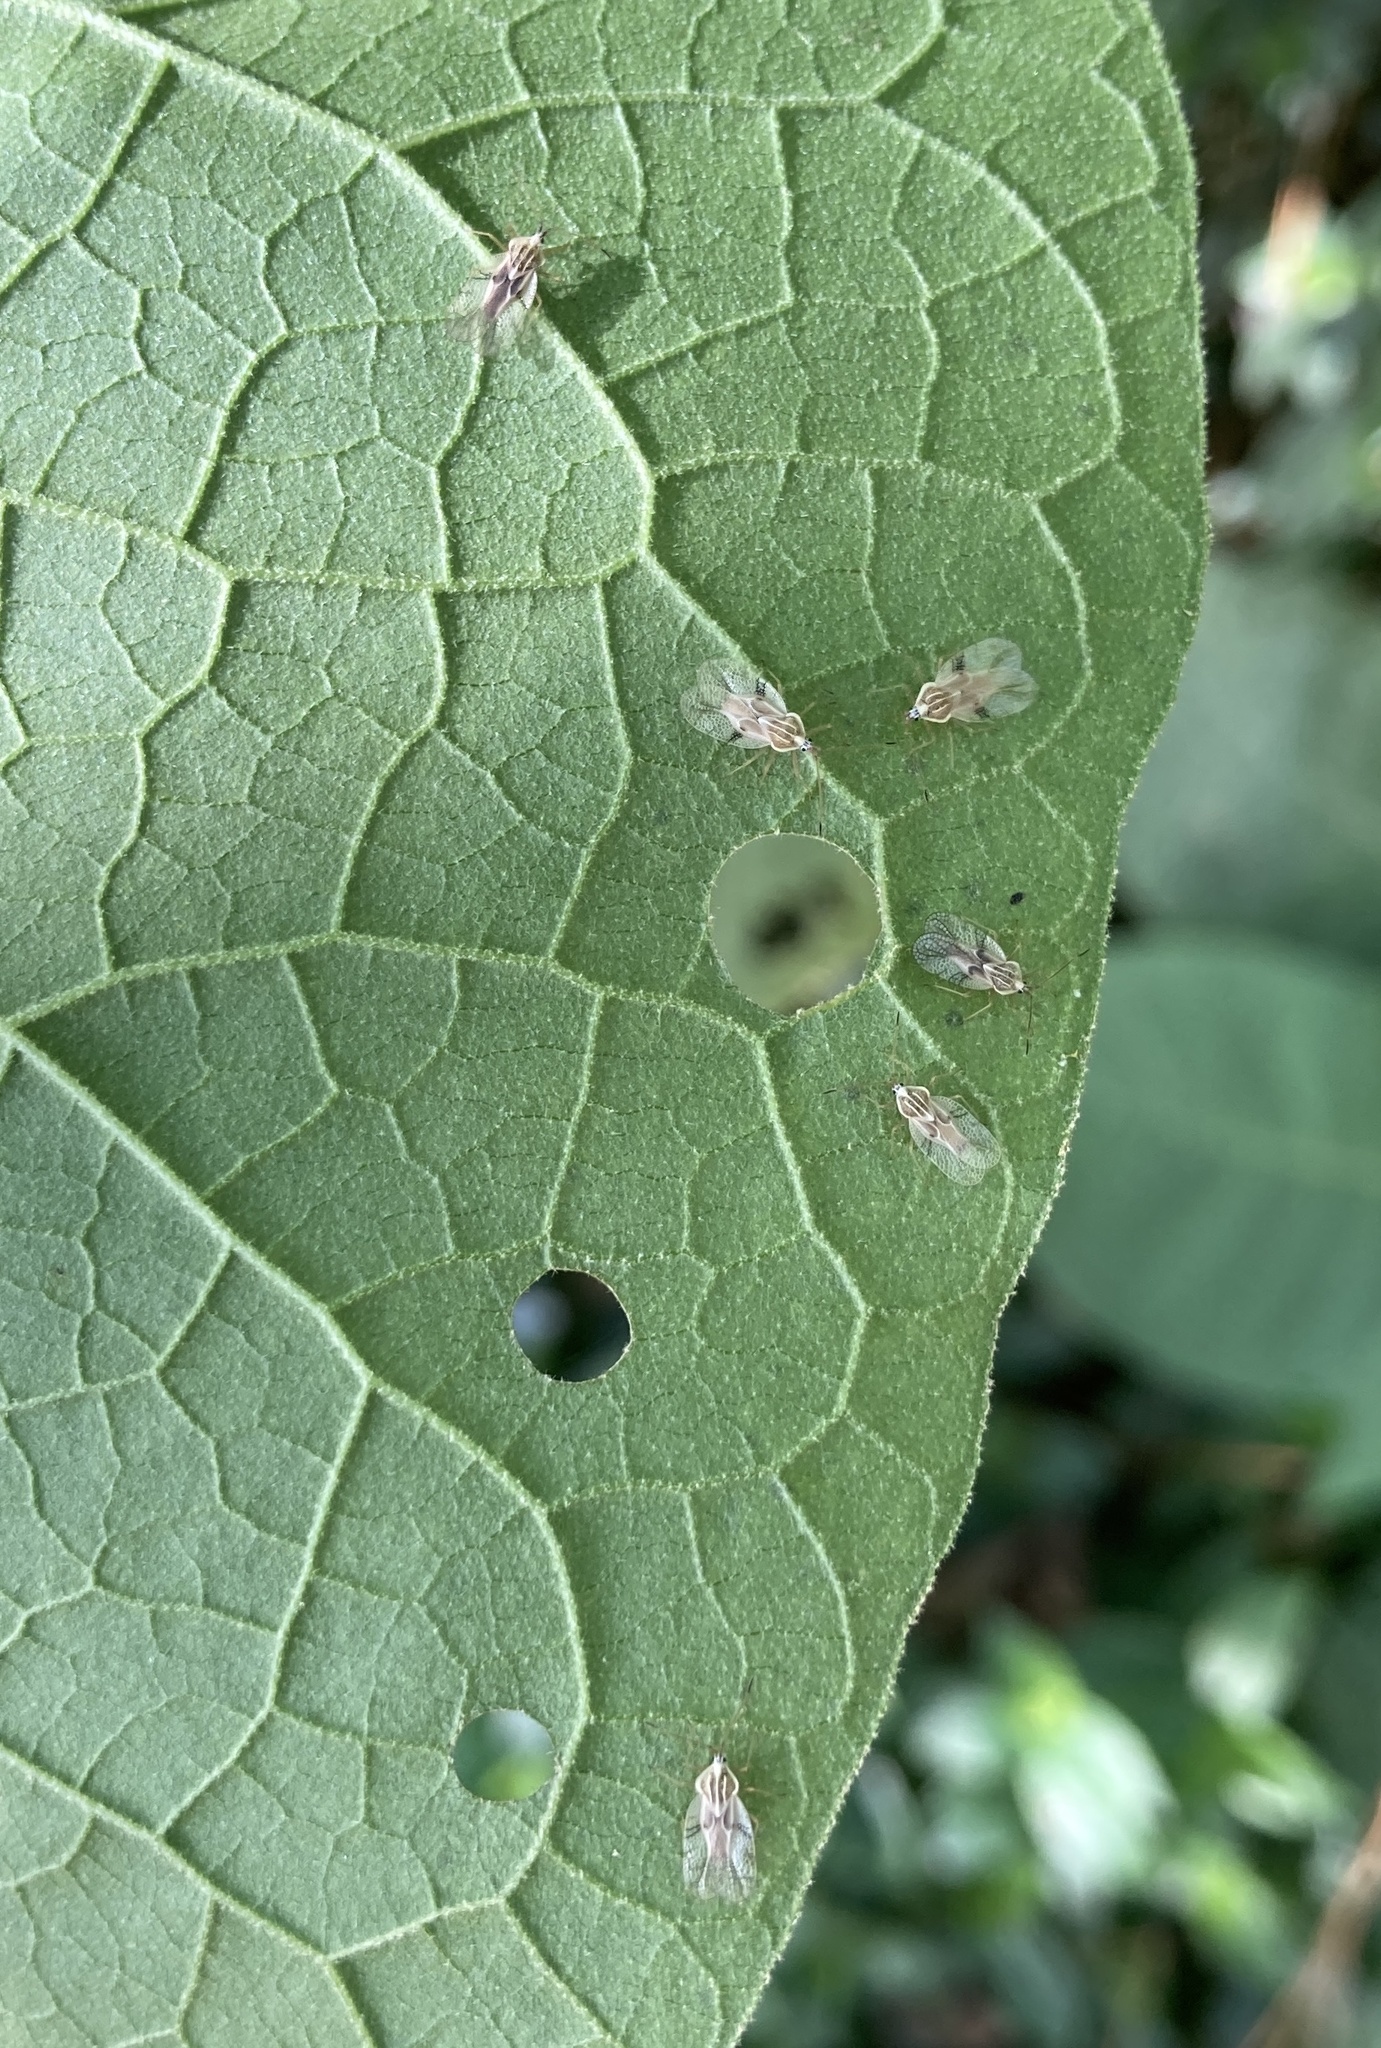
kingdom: Animalia
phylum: Arthropoda
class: Insecta
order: Hemiptera
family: Tingidae
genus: Gargaphia
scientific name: Gargaphia decoris
